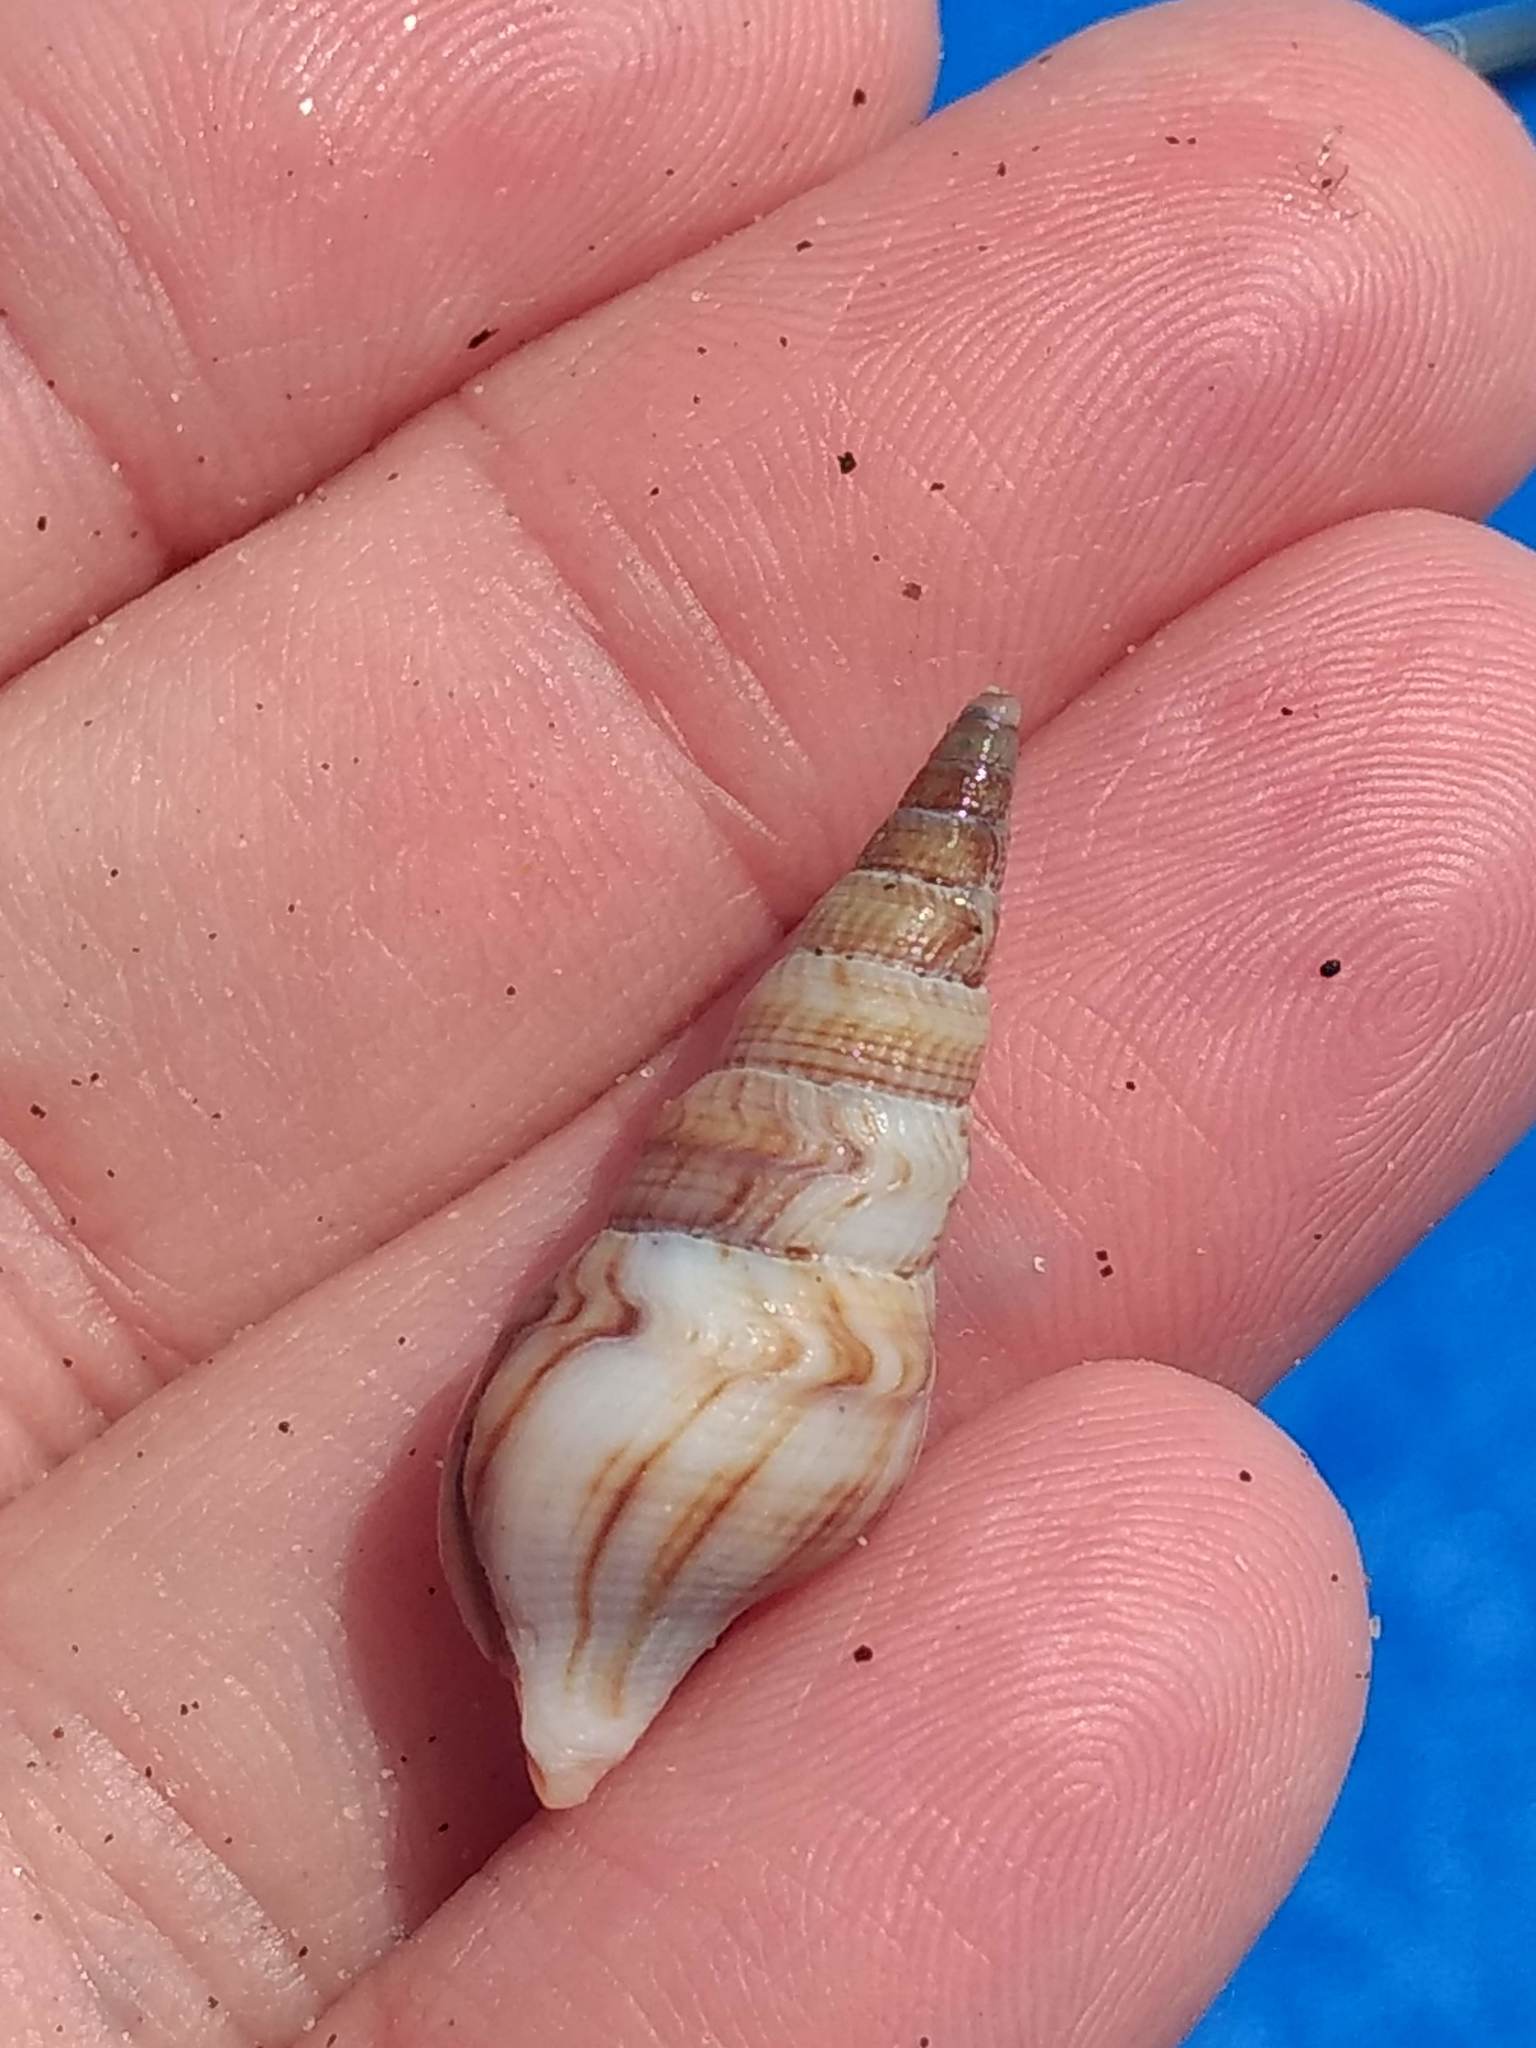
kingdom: Animalia
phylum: Mollusca
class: Gastropoda
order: Neogastropoda
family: Borsoniidae
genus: Ophiodermella
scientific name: Ophiodermella inermis
